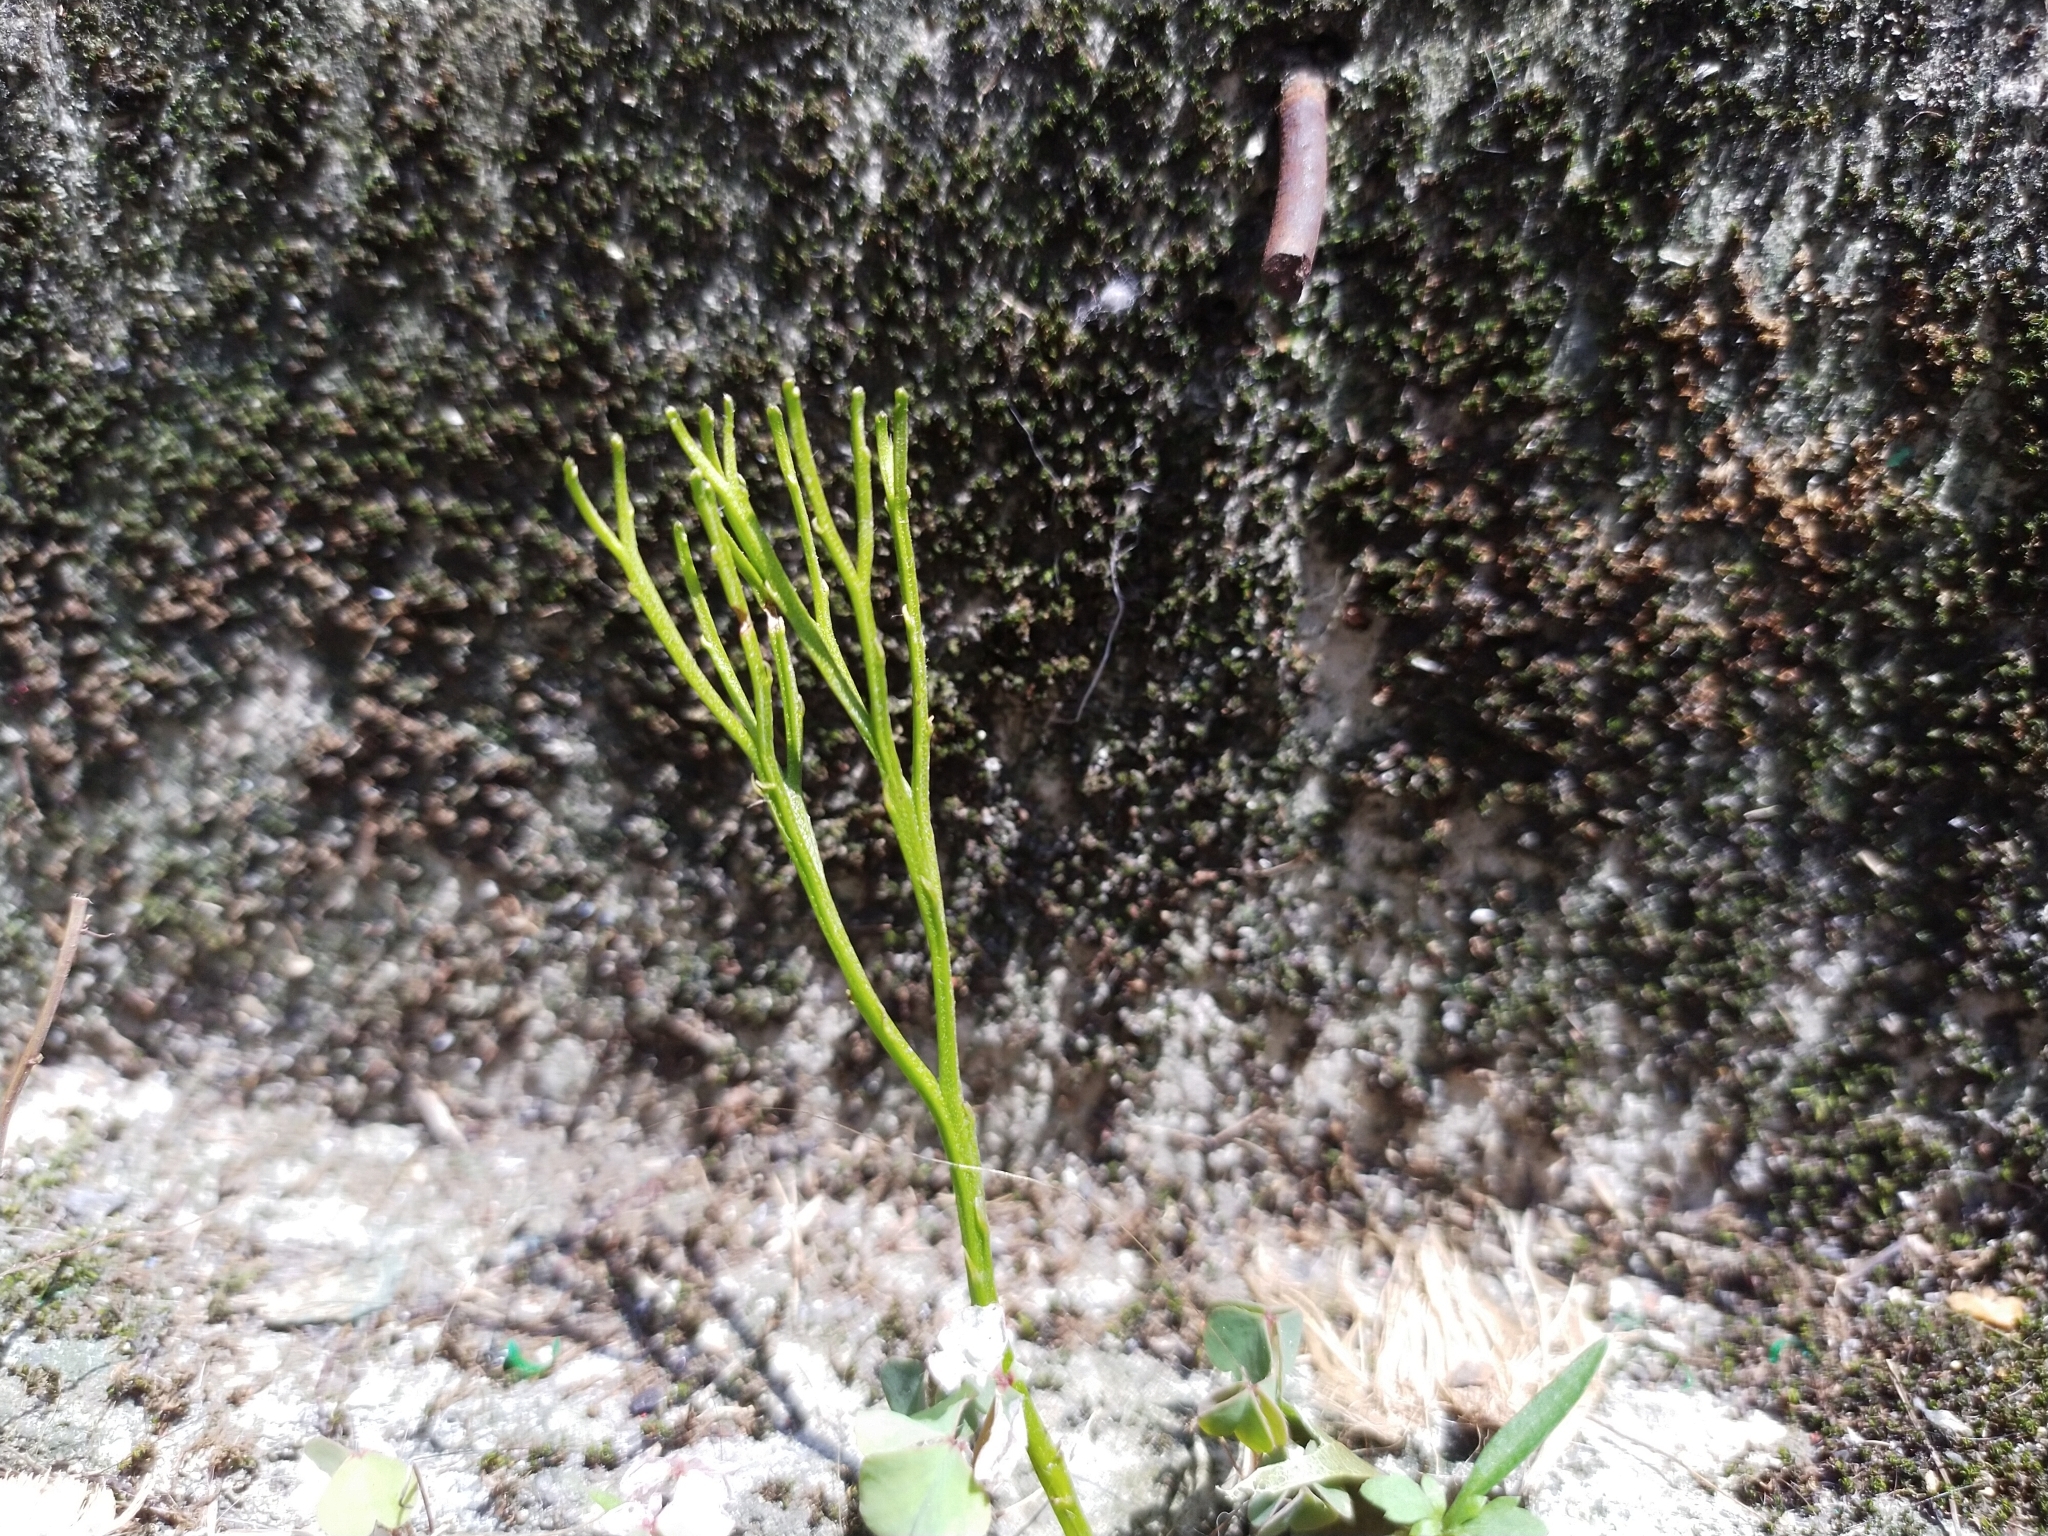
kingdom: Plantae
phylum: Tracheophyta
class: Polypodiopsida
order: Psilotales
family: Psilotaceae
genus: Psilotum
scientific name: Psilotum nudum
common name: Skeleton fork fern
